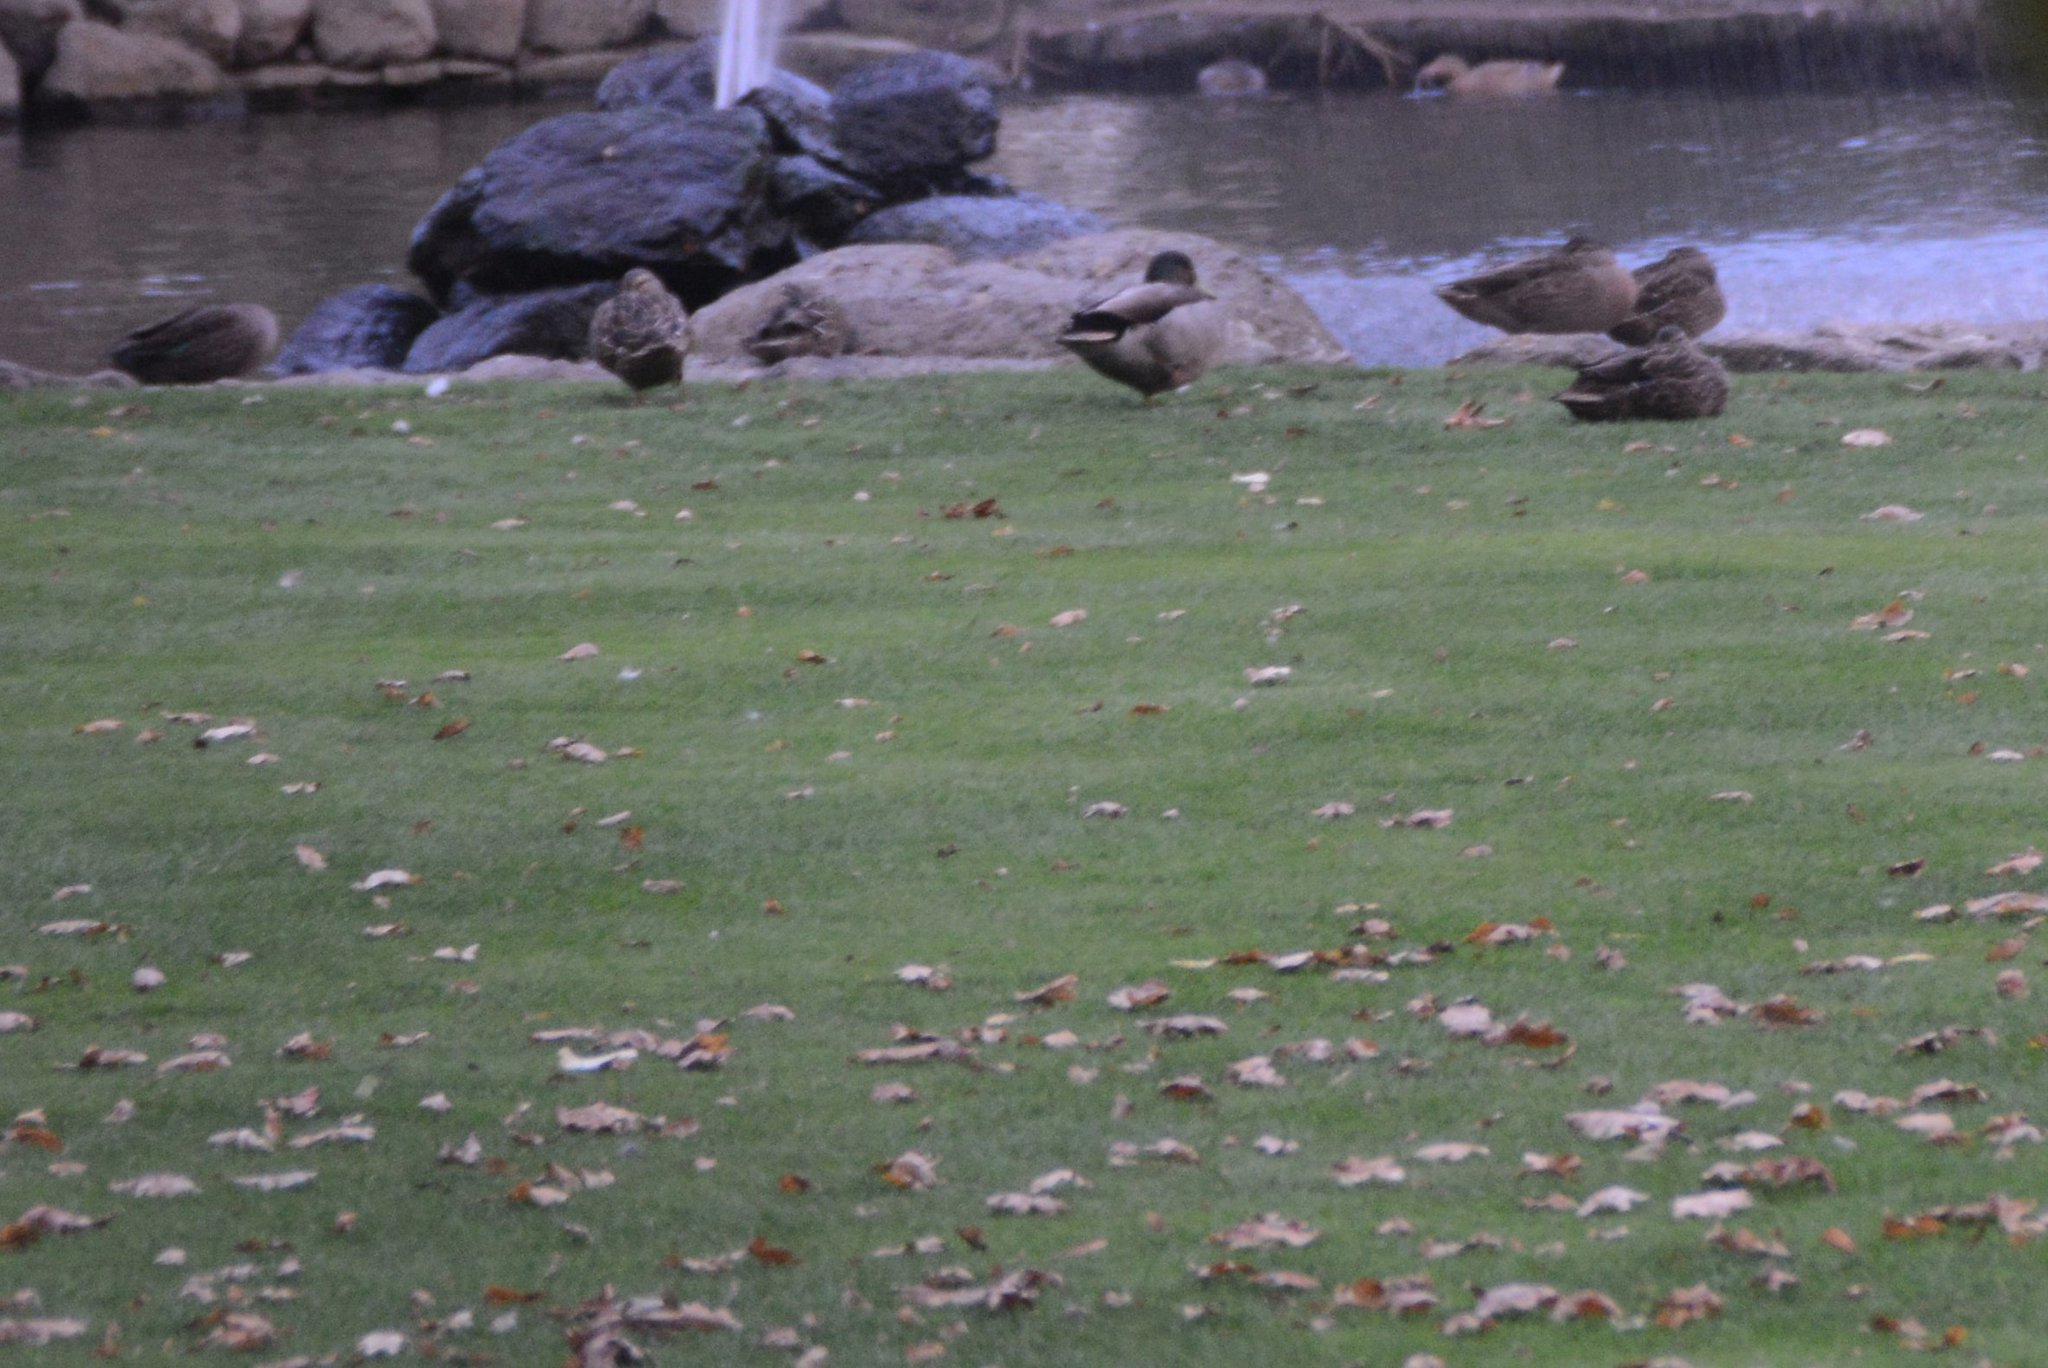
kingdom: Animalia
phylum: Chordata
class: Aves
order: Anseriformes
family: Anatidae
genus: Anas
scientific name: Anas platyrhynchos
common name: Mallard
